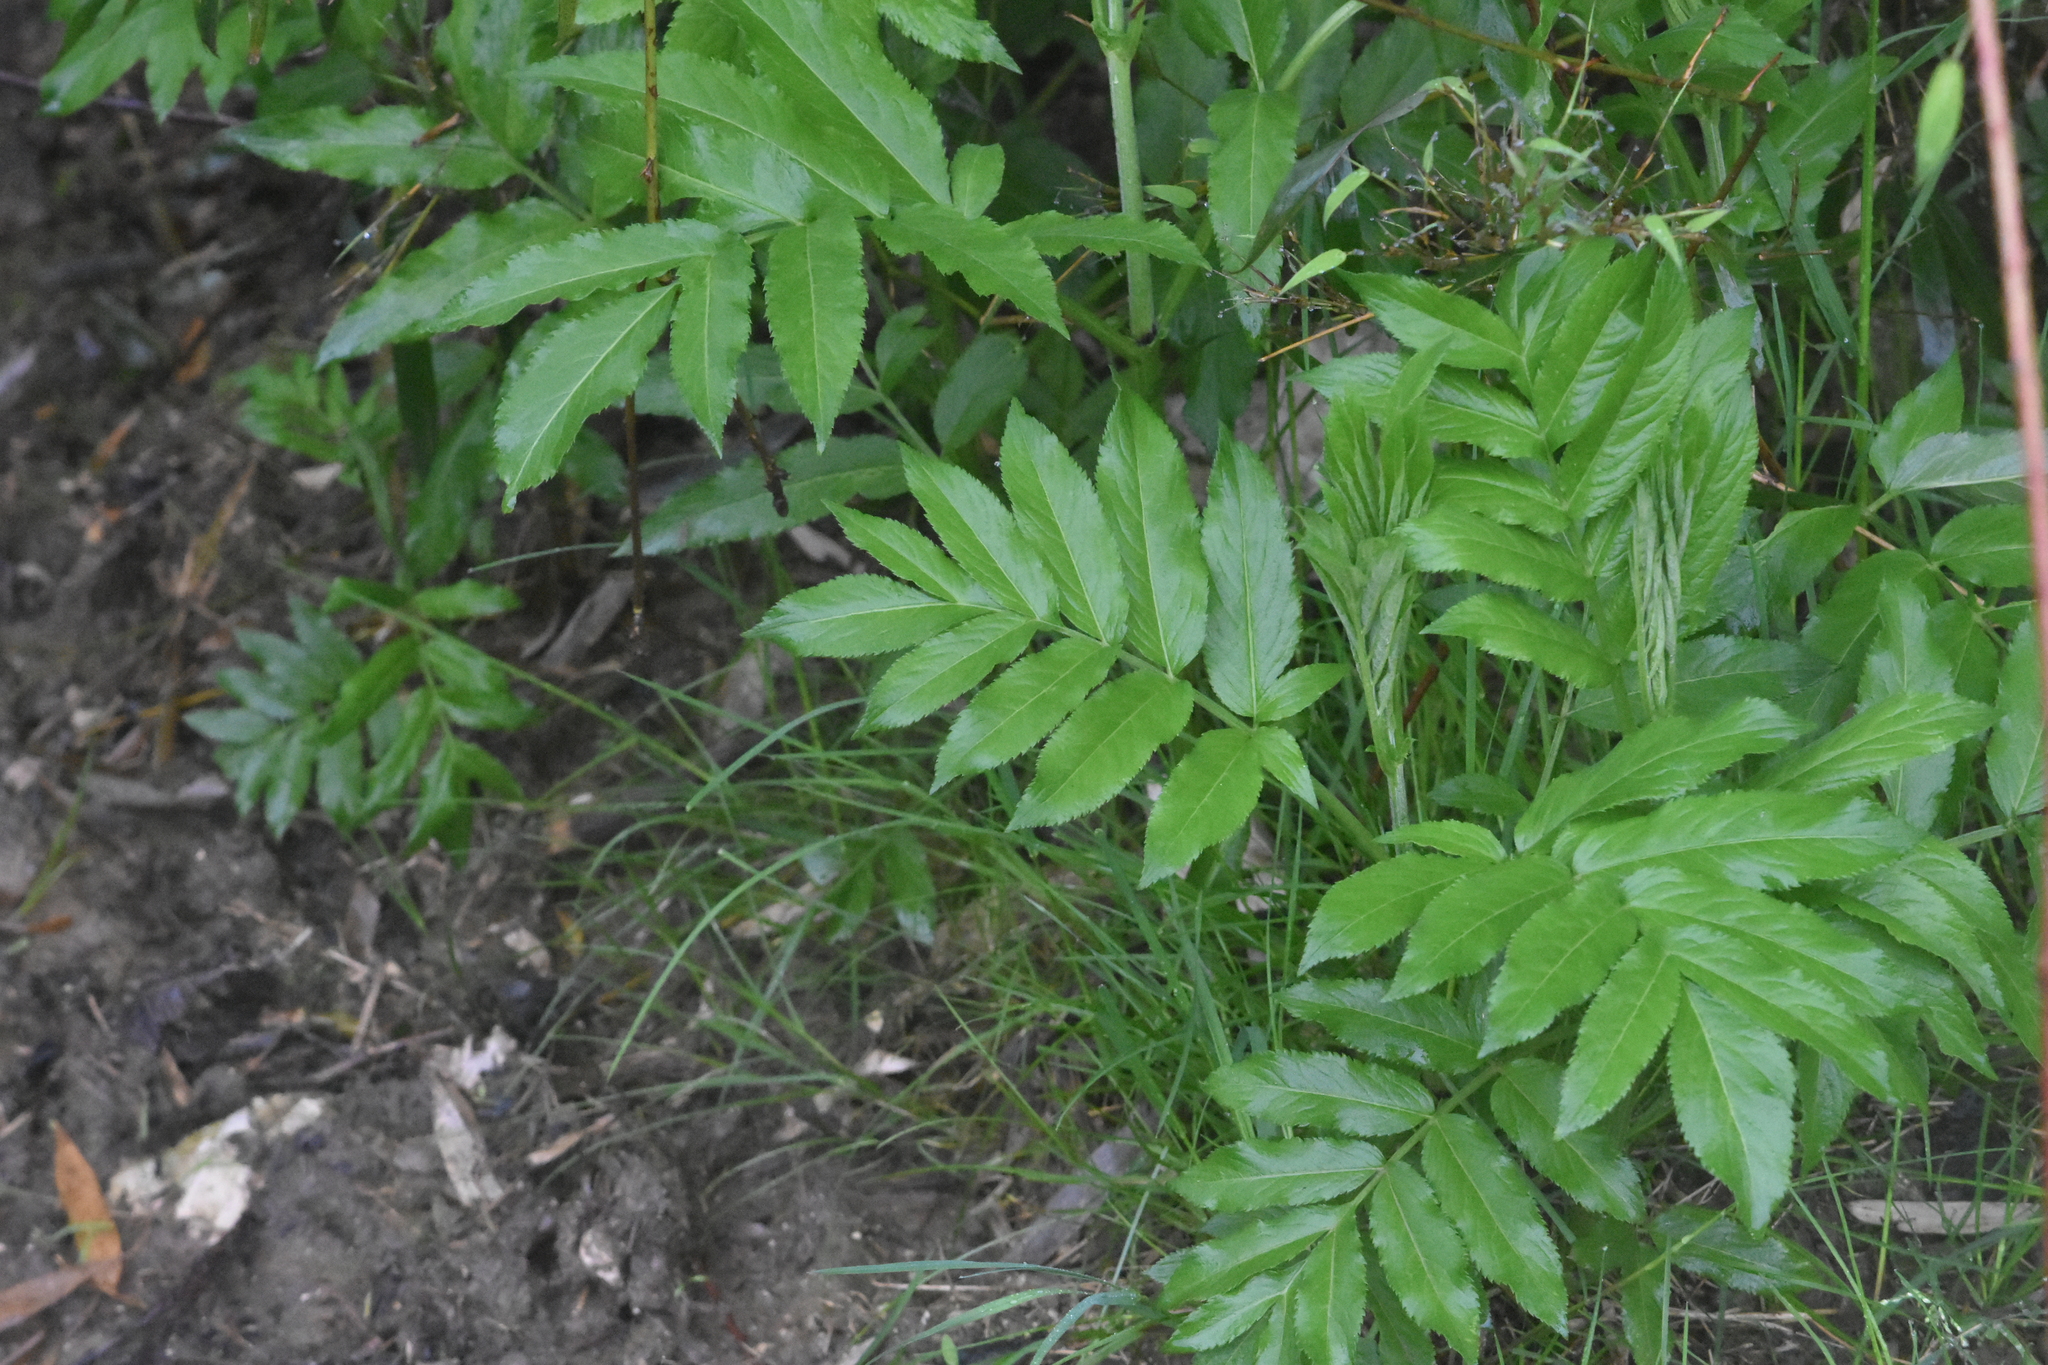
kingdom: Plantae
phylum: Tracheophyta
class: Magnoliopsida
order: Dipsacales
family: Viburnaceae
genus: Sambucus
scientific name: Sambucus ebulus
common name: Dwarf elder
